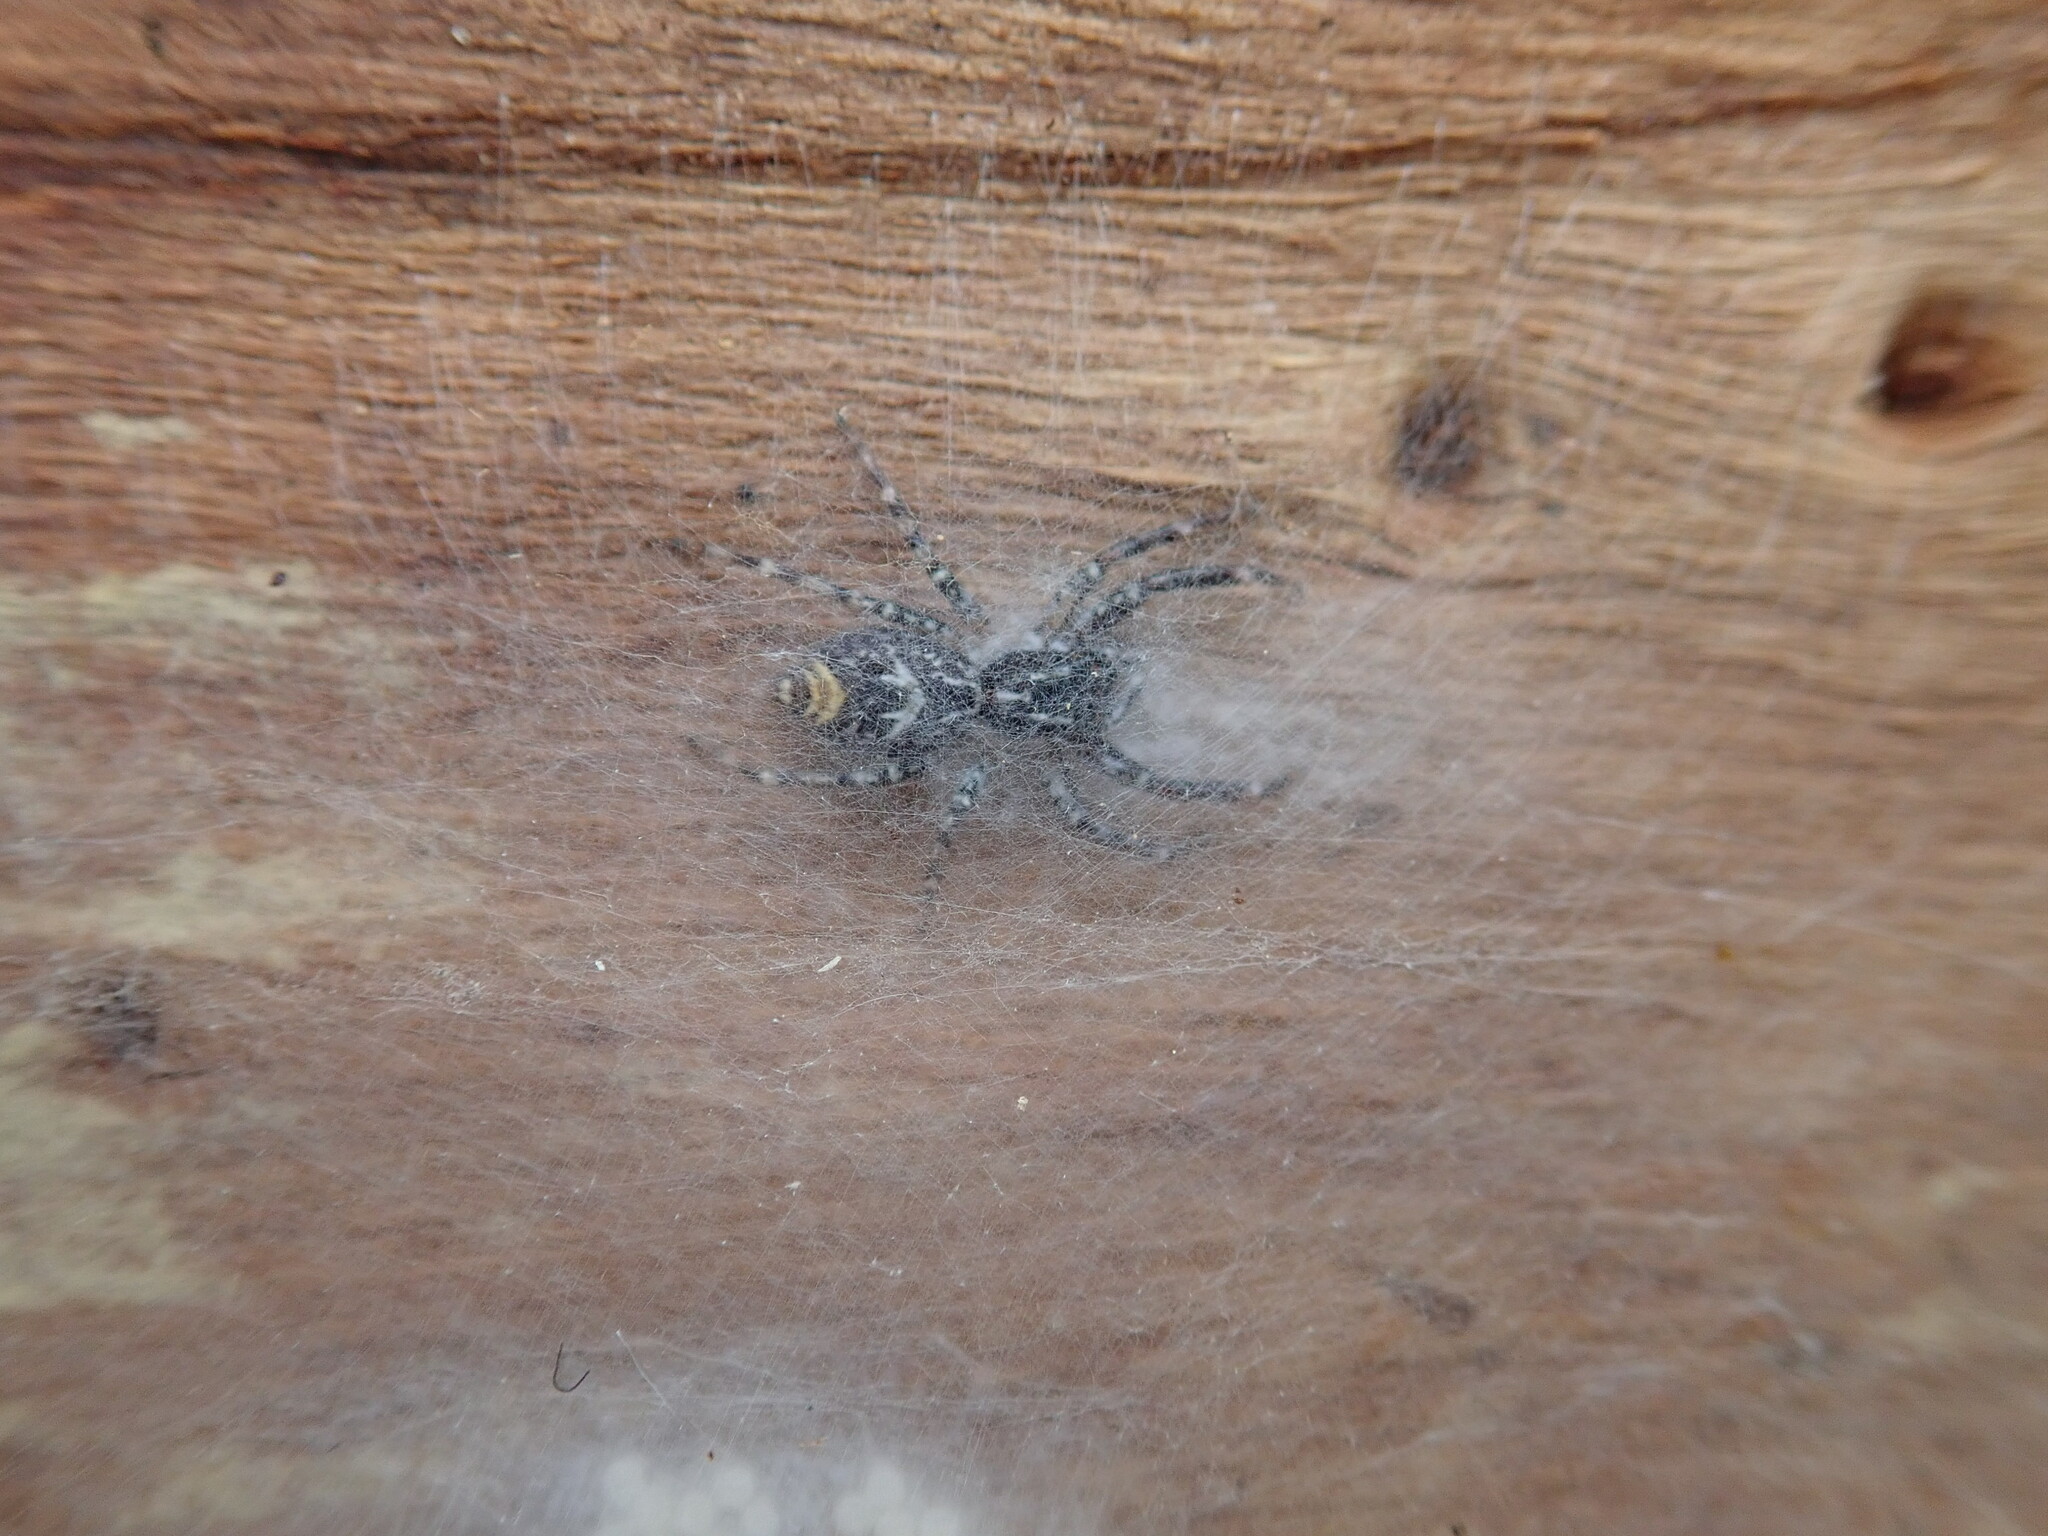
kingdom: Animalia
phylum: Arthropoda
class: Arachnida
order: Araneae
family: Salticidae
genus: Astia
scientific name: Astia
